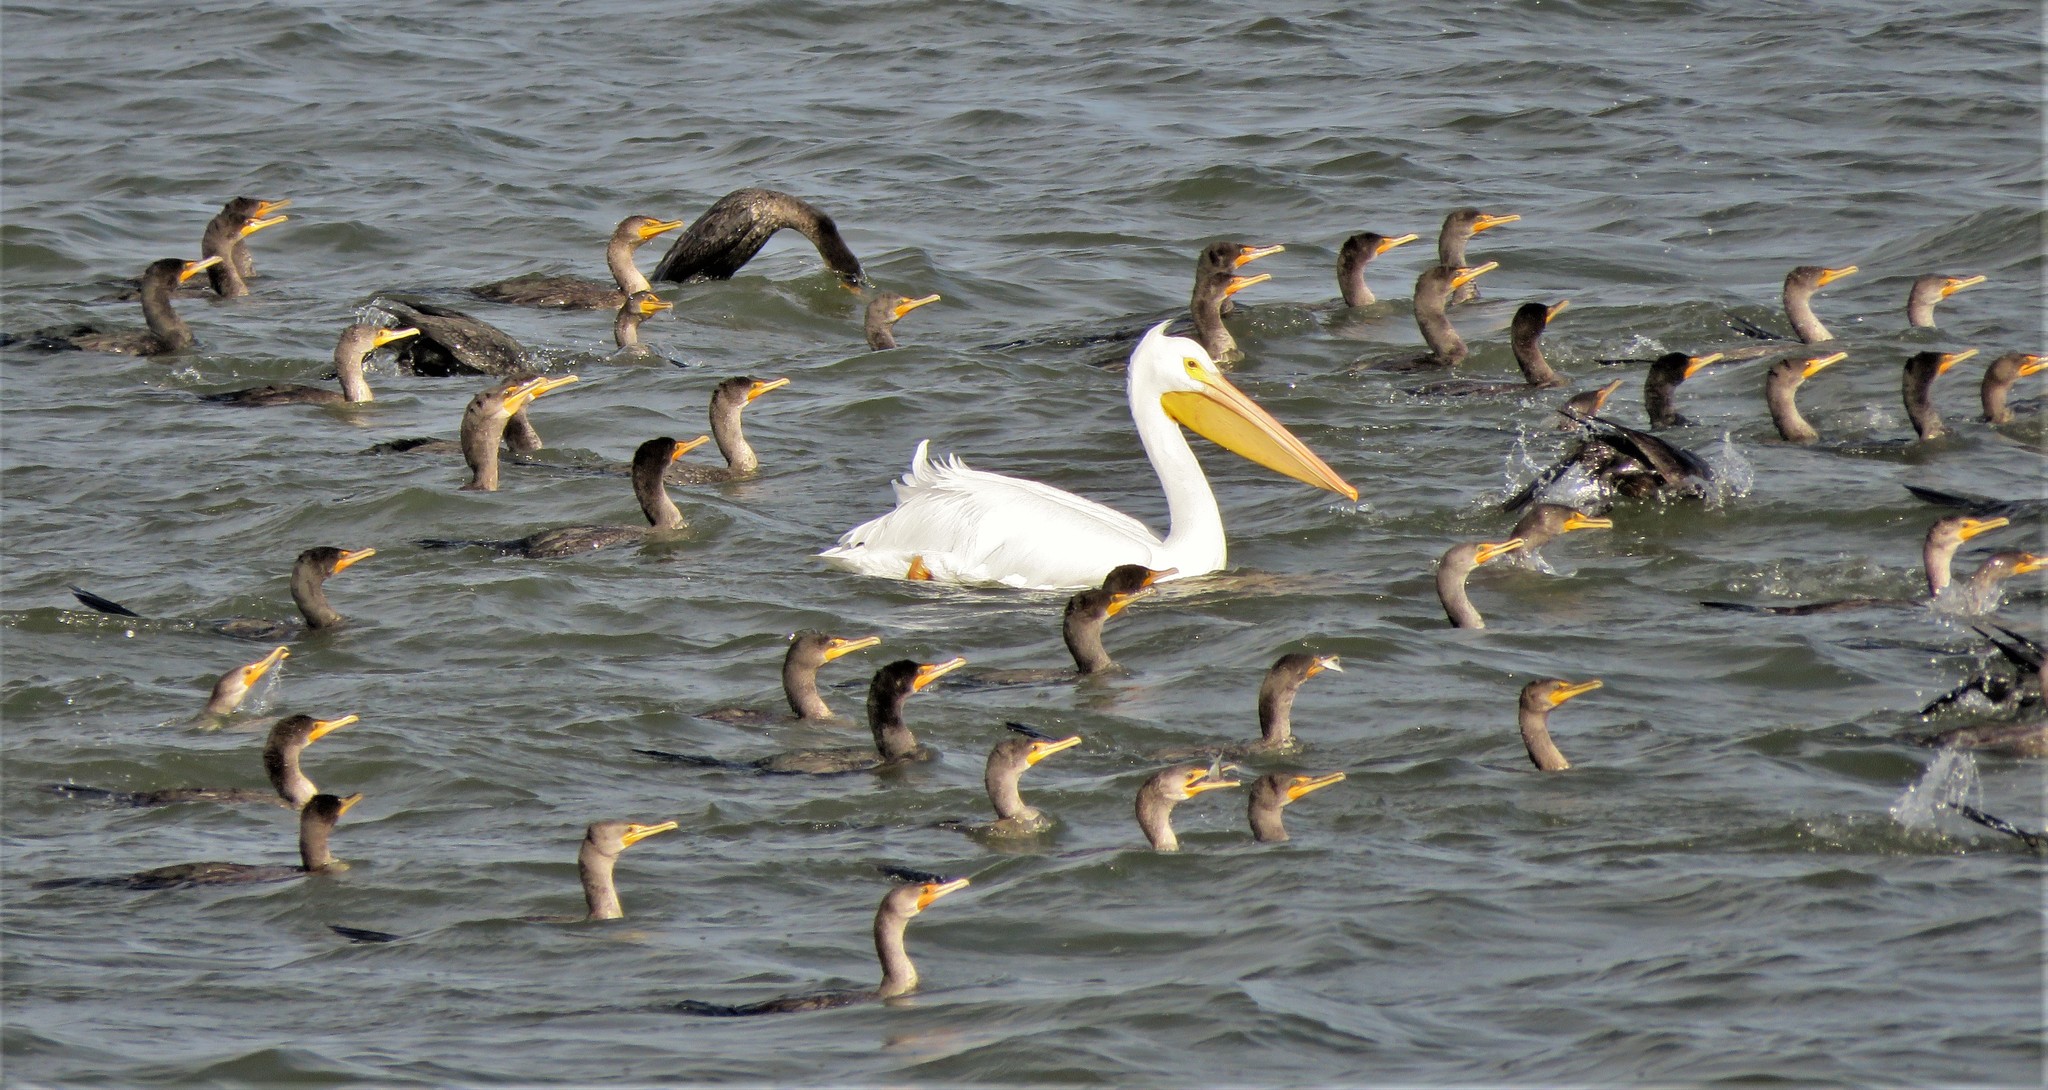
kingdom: Animalia
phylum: Chordata
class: Aves
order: Pelecaniformes
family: Pelecanidae
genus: Pelecanus
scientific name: Pelecanus erythrorhynchos
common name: American white pelican
